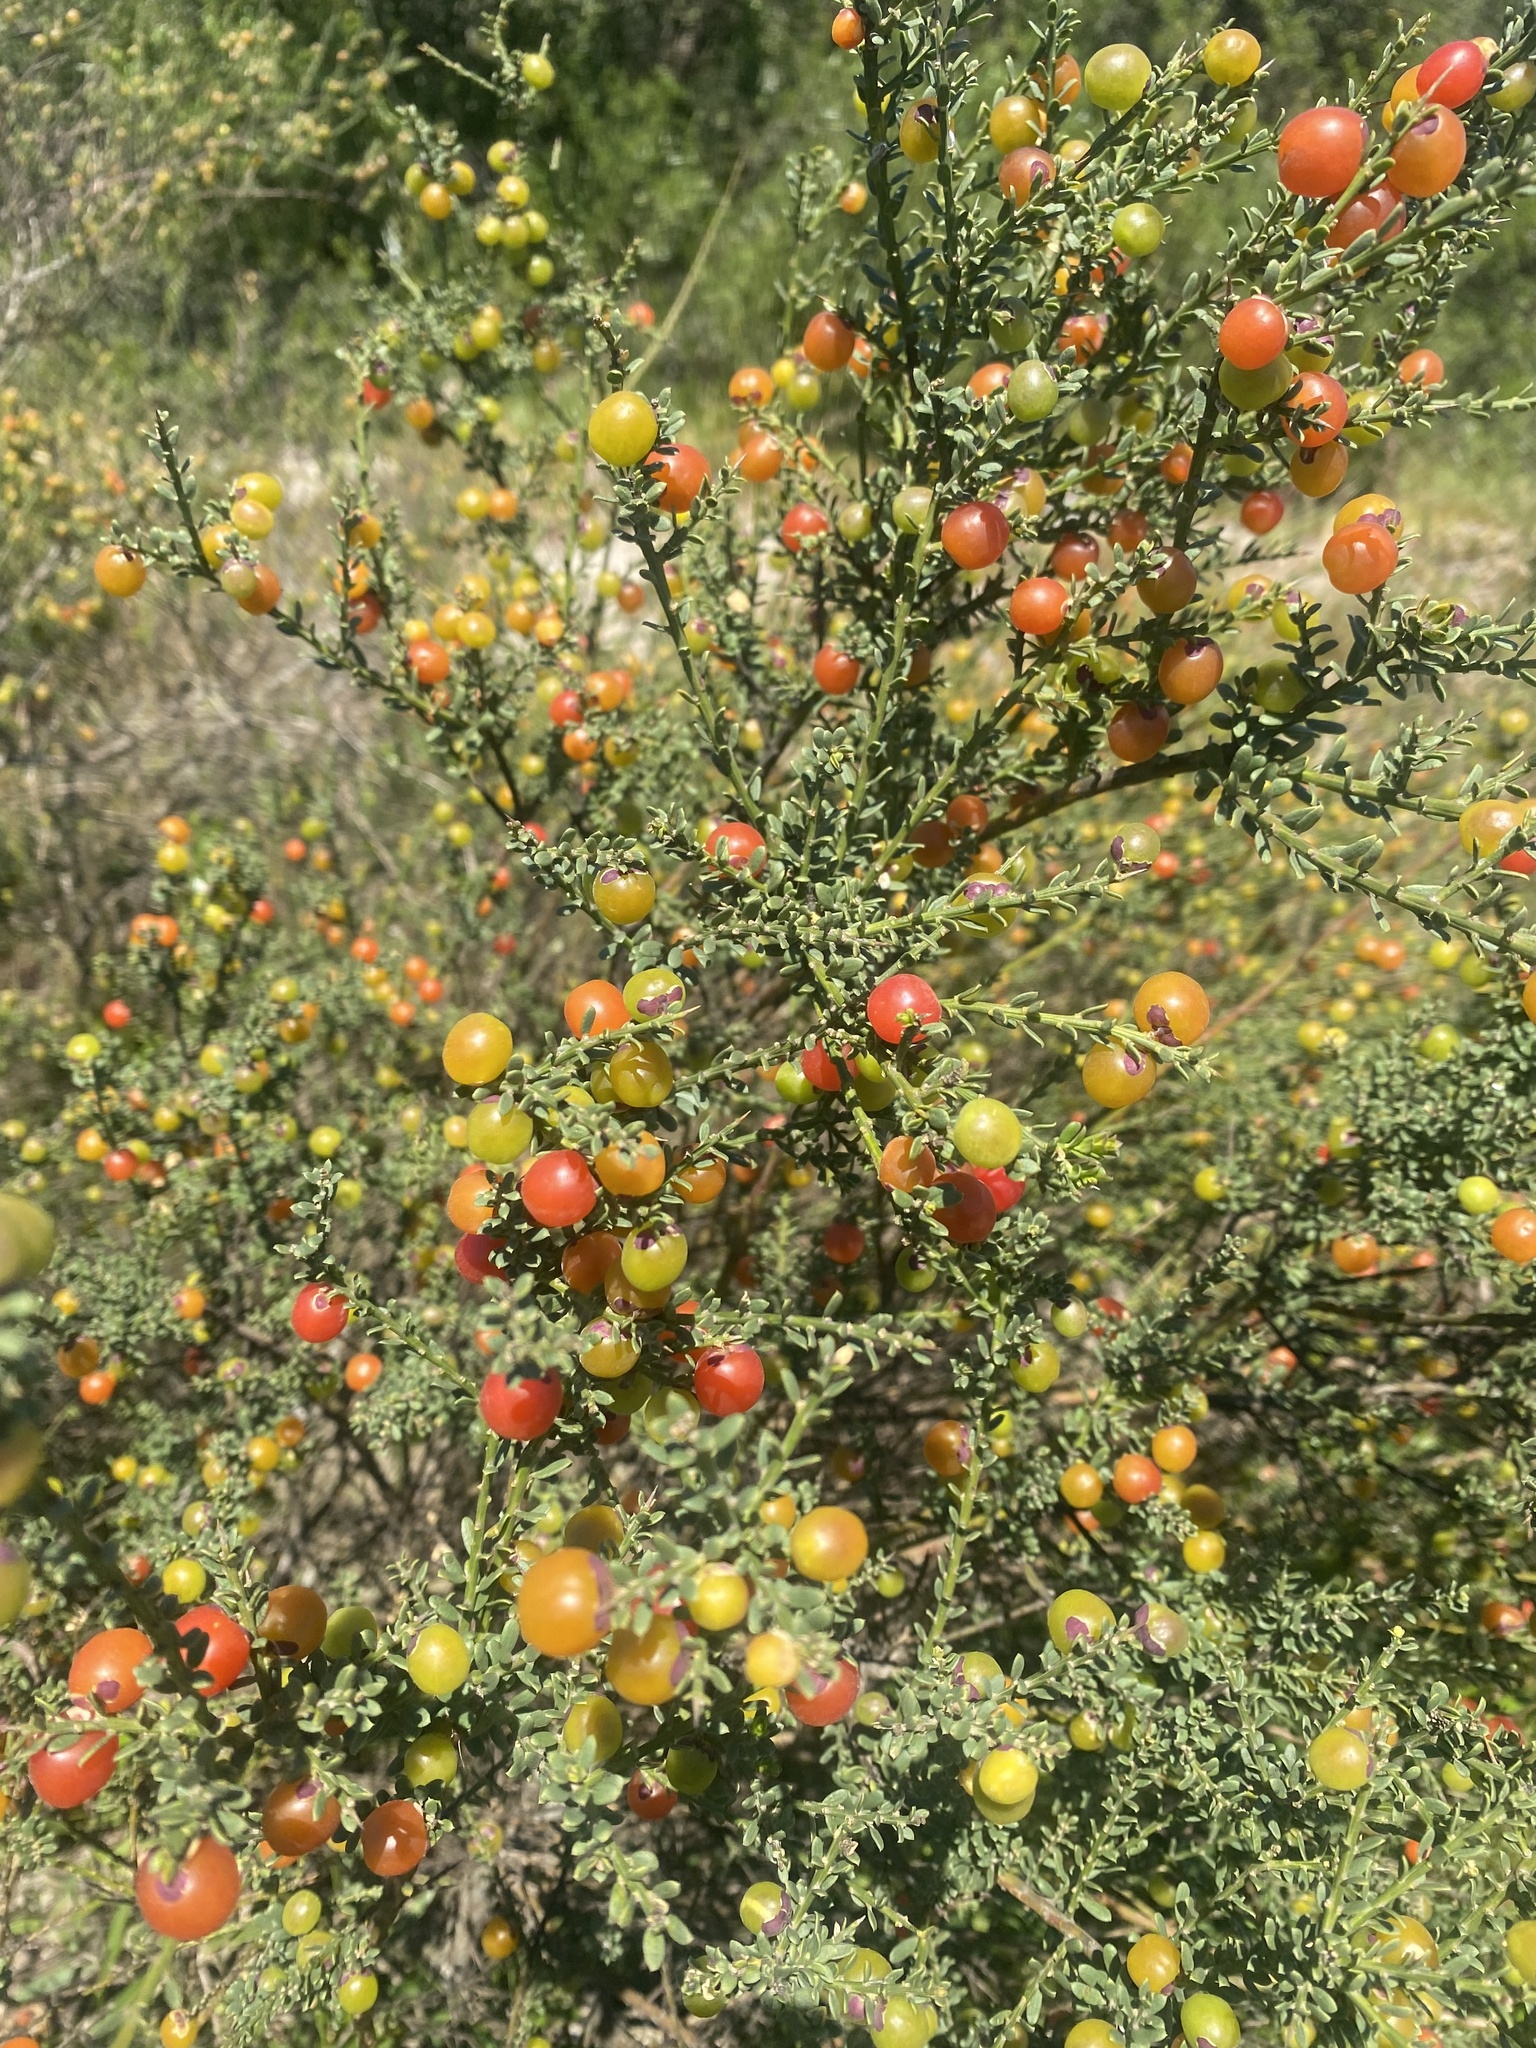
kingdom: Plantae
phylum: Tracheophyta
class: Magnoliopsida
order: Fabales
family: Polygalaceae
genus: Muraltia
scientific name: Muraltia spinosa
